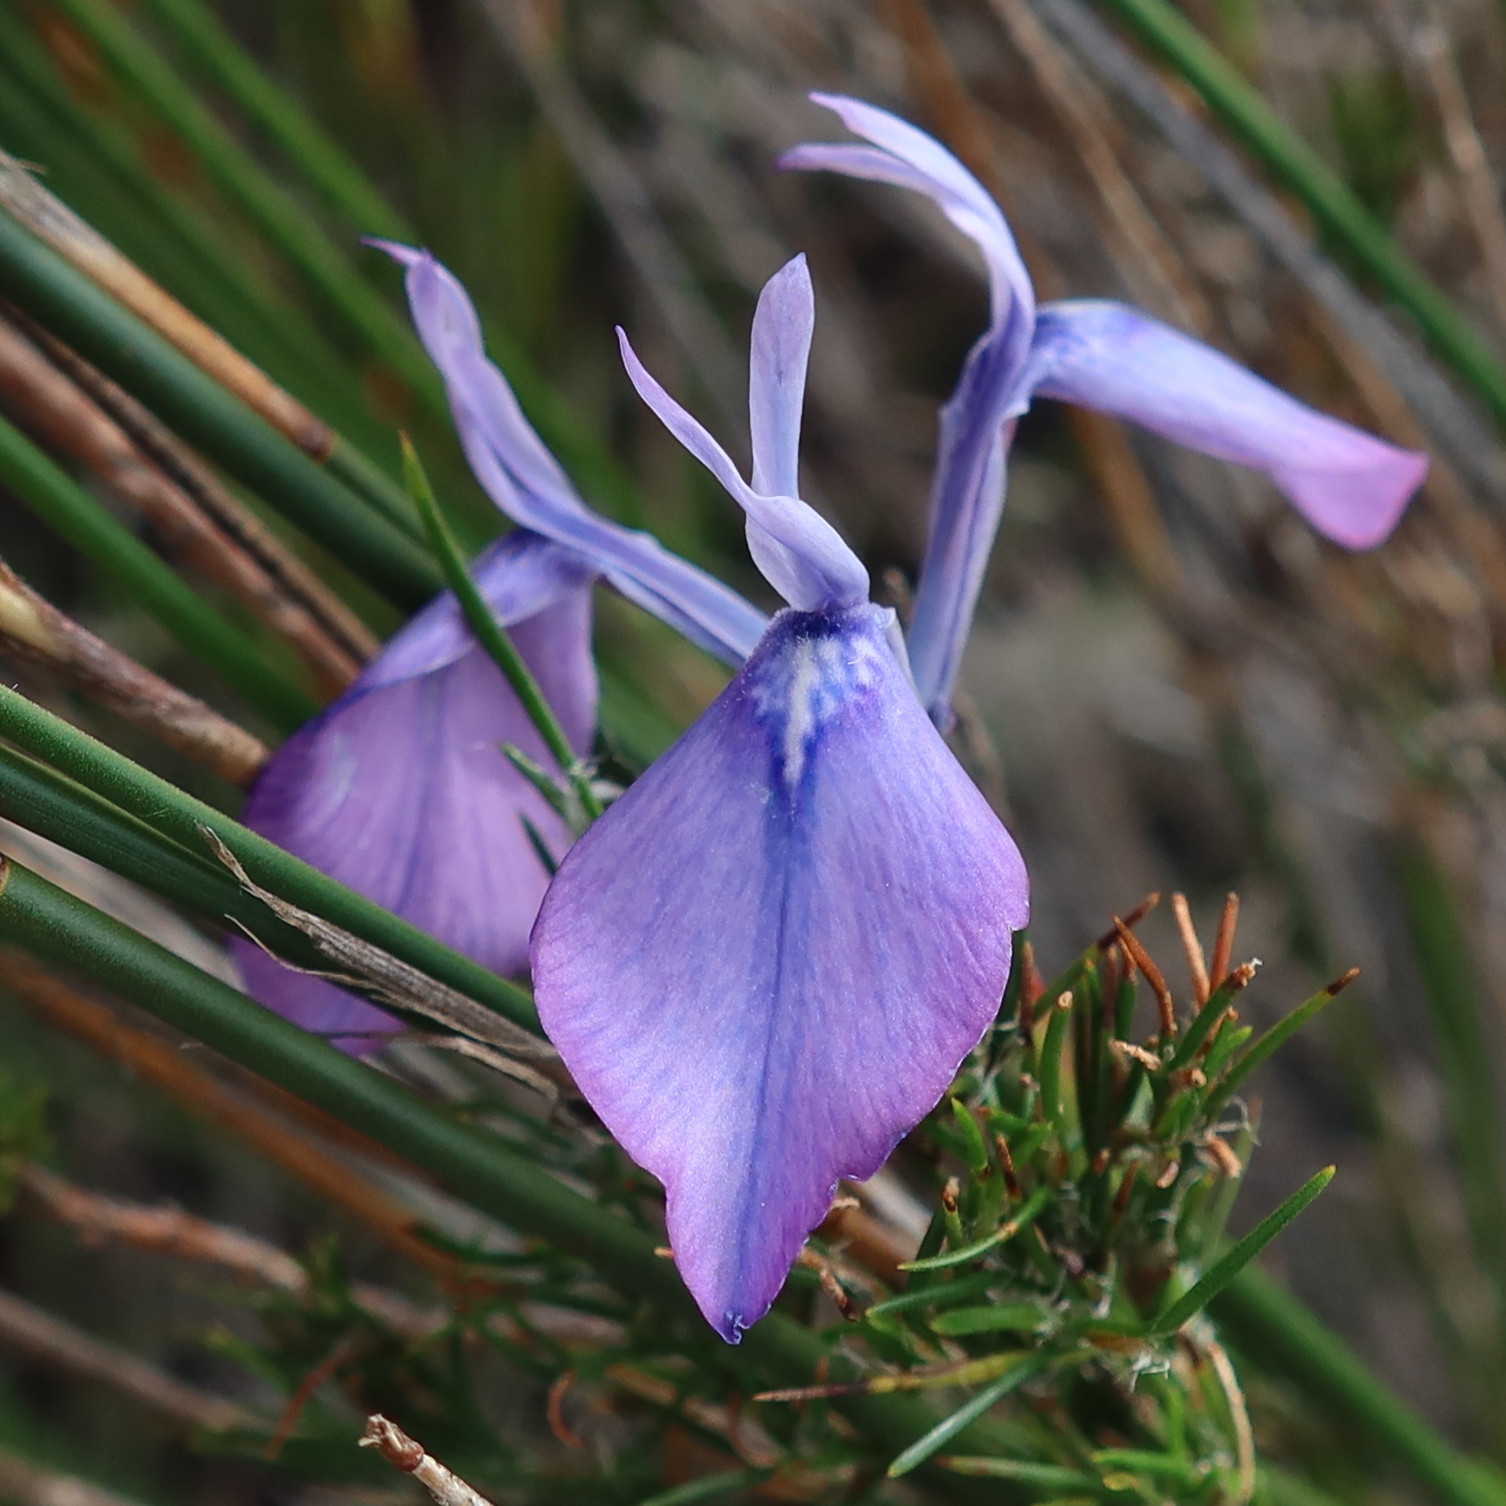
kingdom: Plantae
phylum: Tracheophyta
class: Liliopsida
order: Asparagales
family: Iridaceae
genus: Moraea
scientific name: Moraea tripetala
